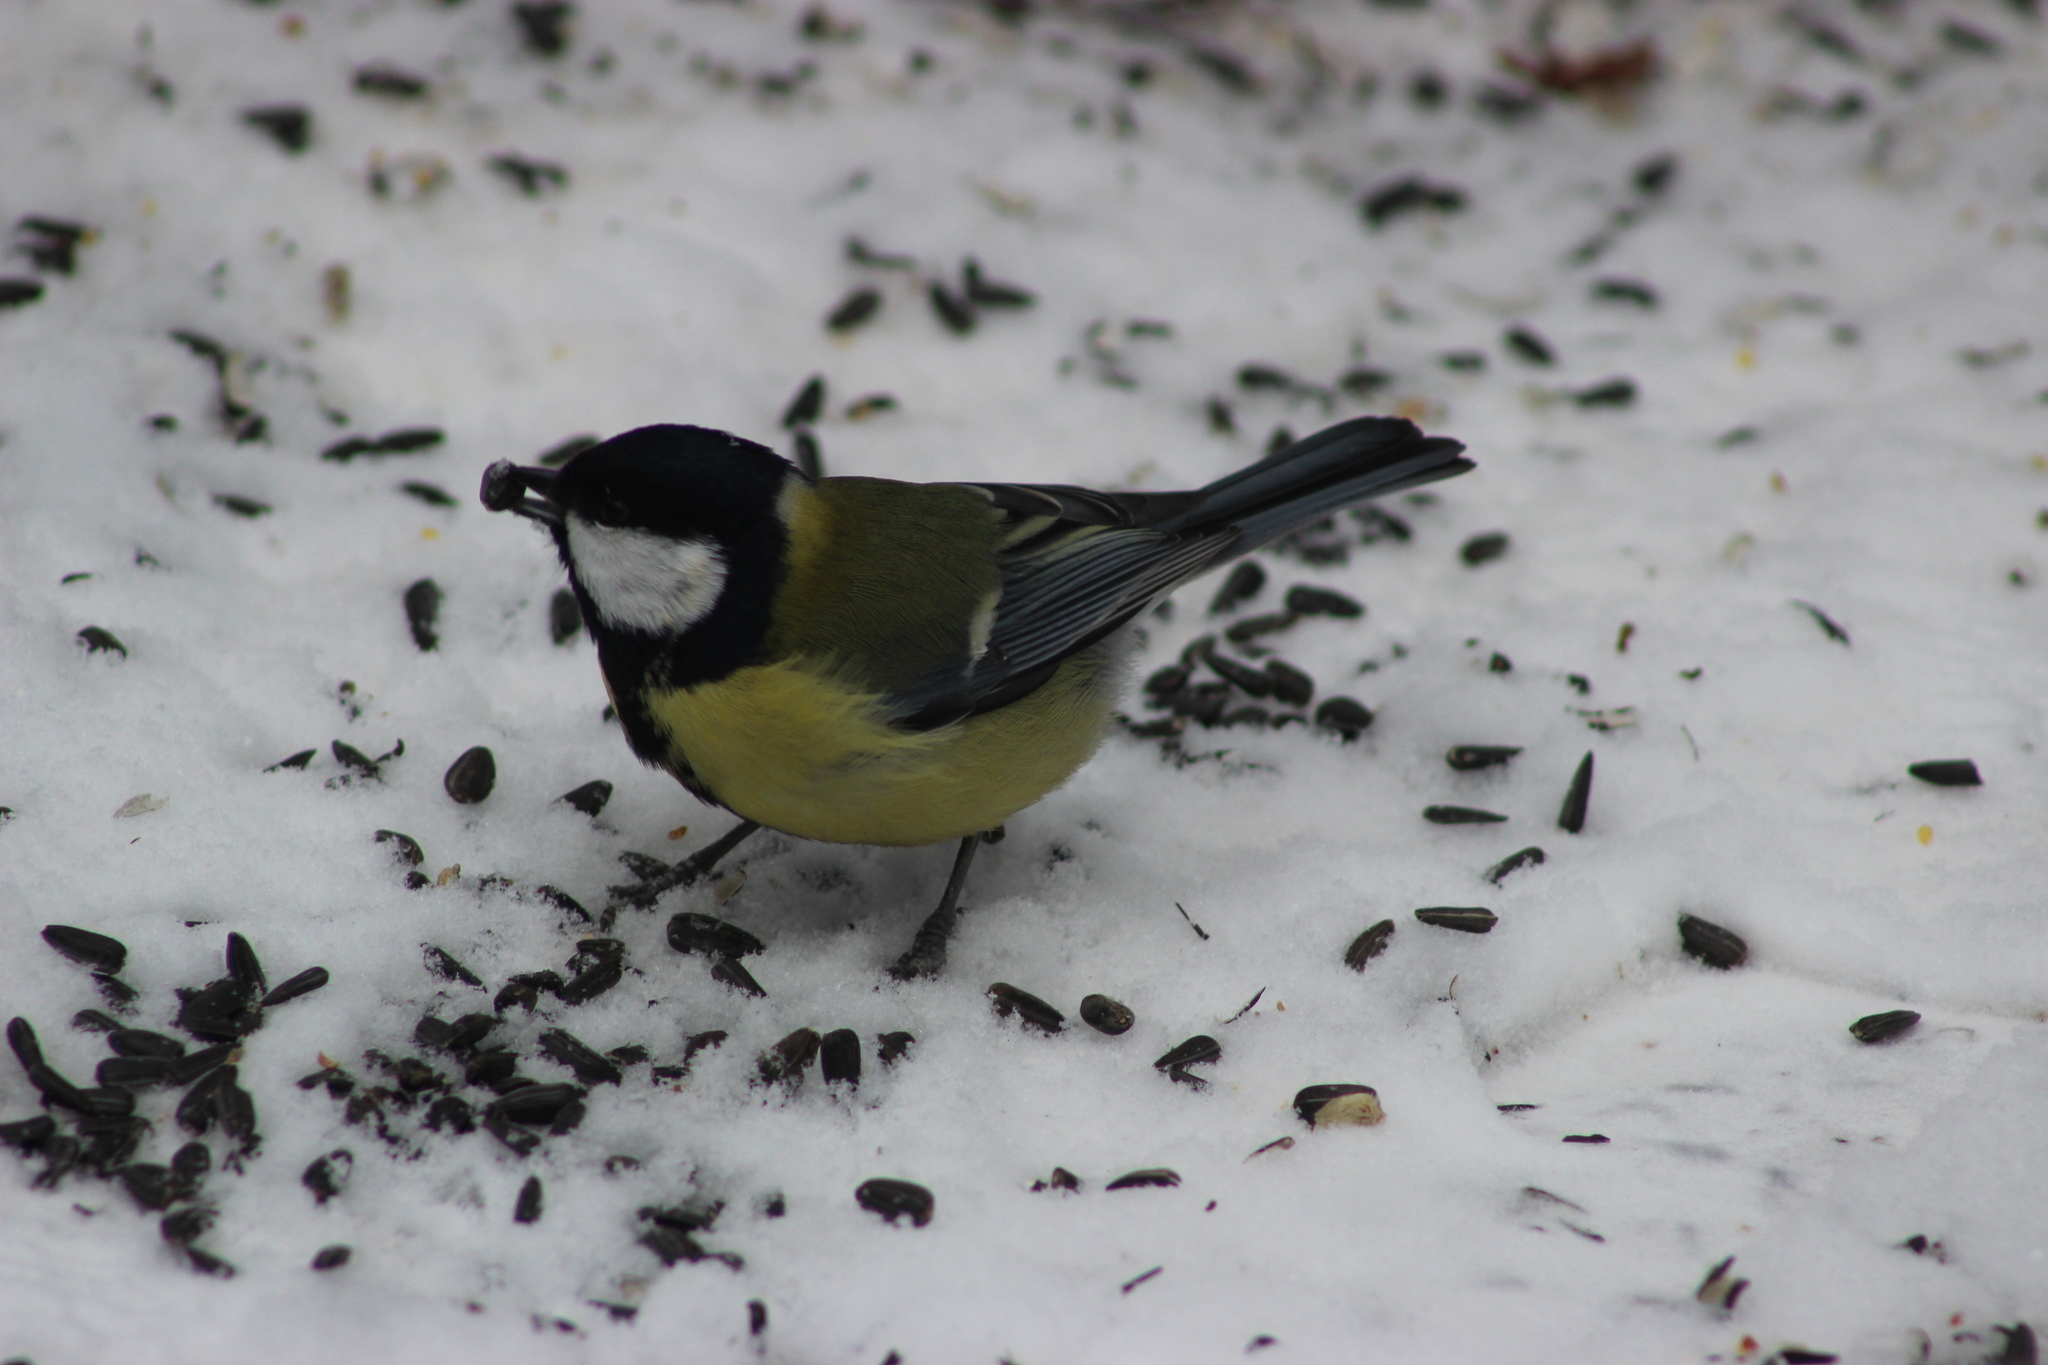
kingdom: Animalia
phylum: Chordata
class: Aves
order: Passeriformes
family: Paridae
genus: Parus
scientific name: Parus major
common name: Great tit
